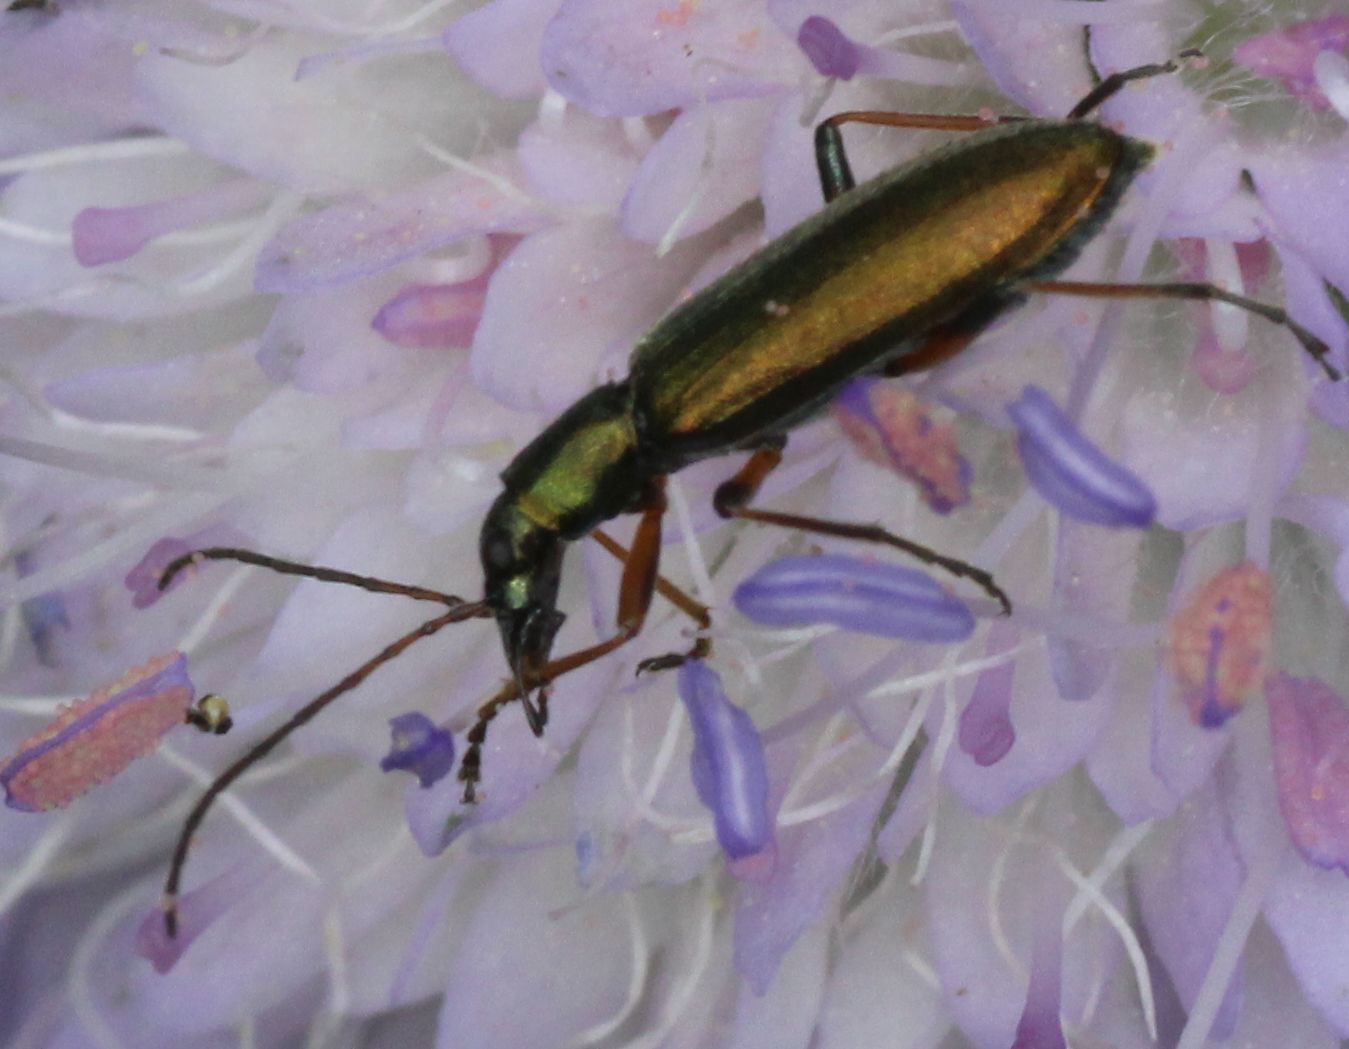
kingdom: Animalia
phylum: Arthropoda
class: Insecta
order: Coleoptera
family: Oedemeridae
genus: Chrysanthia
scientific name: Chrysanthia geniculata
